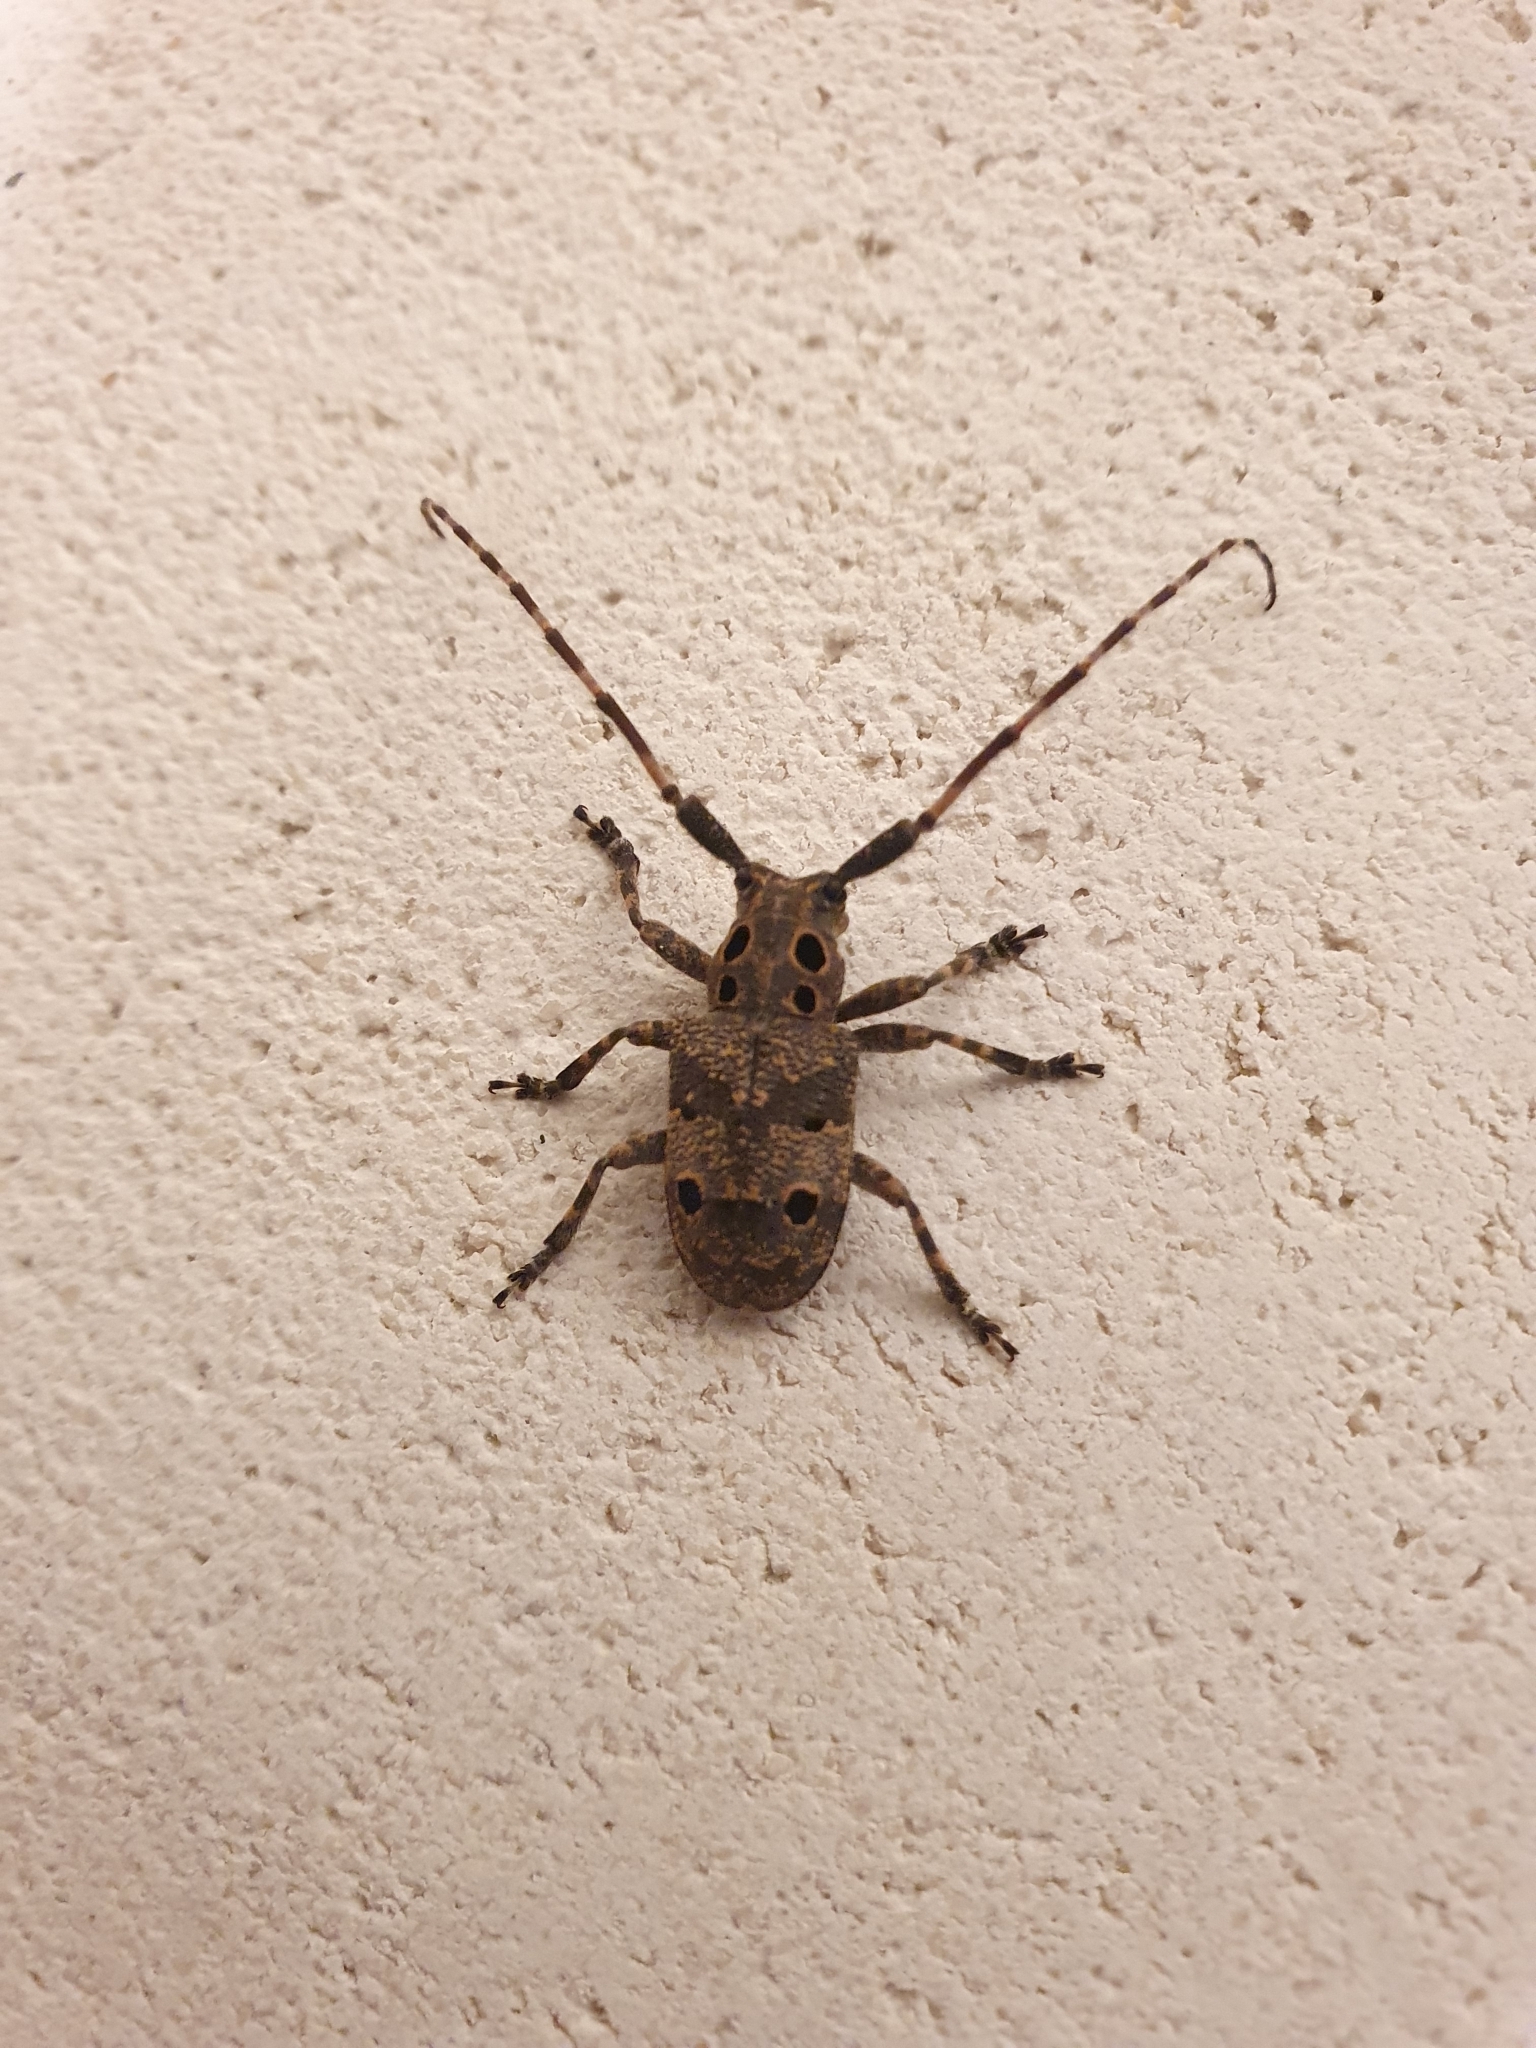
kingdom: Animalia
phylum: Arthropoda
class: Insecta
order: Coleoptera
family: Cerambycidae
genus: Mesosa
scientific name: Mesosa curculionoides
